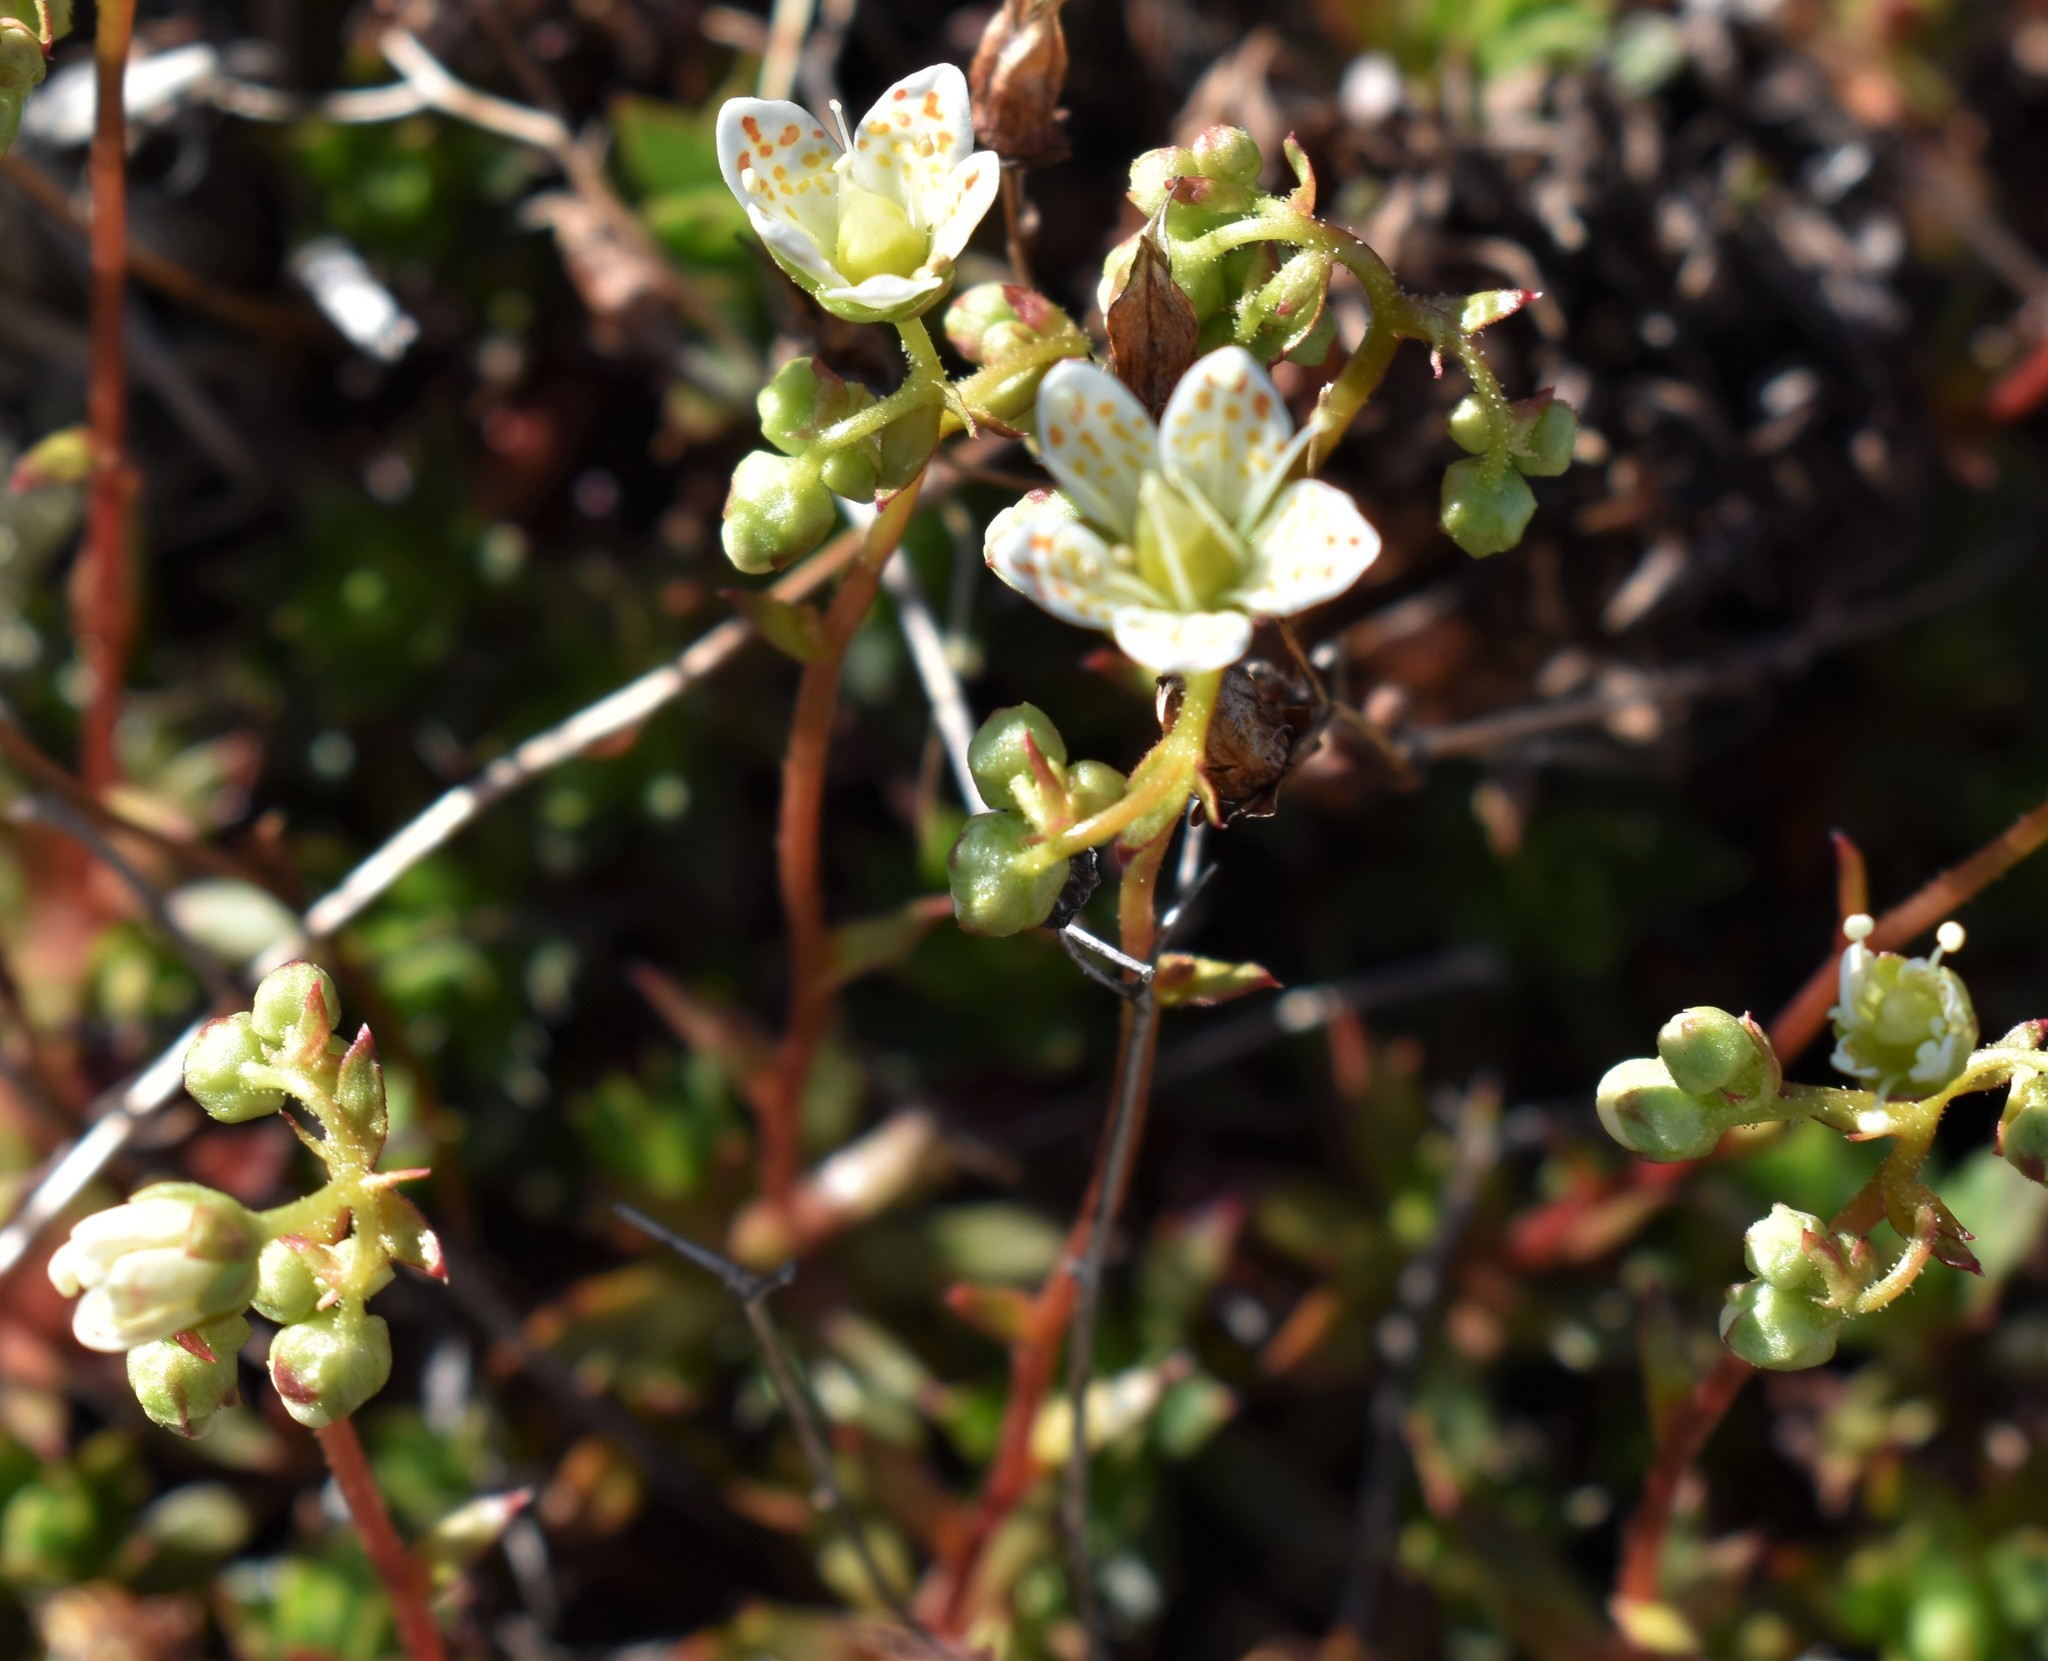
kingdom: Plantae
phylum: Tracheophyta
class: Magnoliopsida
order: Saxifragales
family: Saxifragaceae
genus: Saxifraga
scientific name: Saxifraga tricuspidata
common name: Prickly saxifrage
